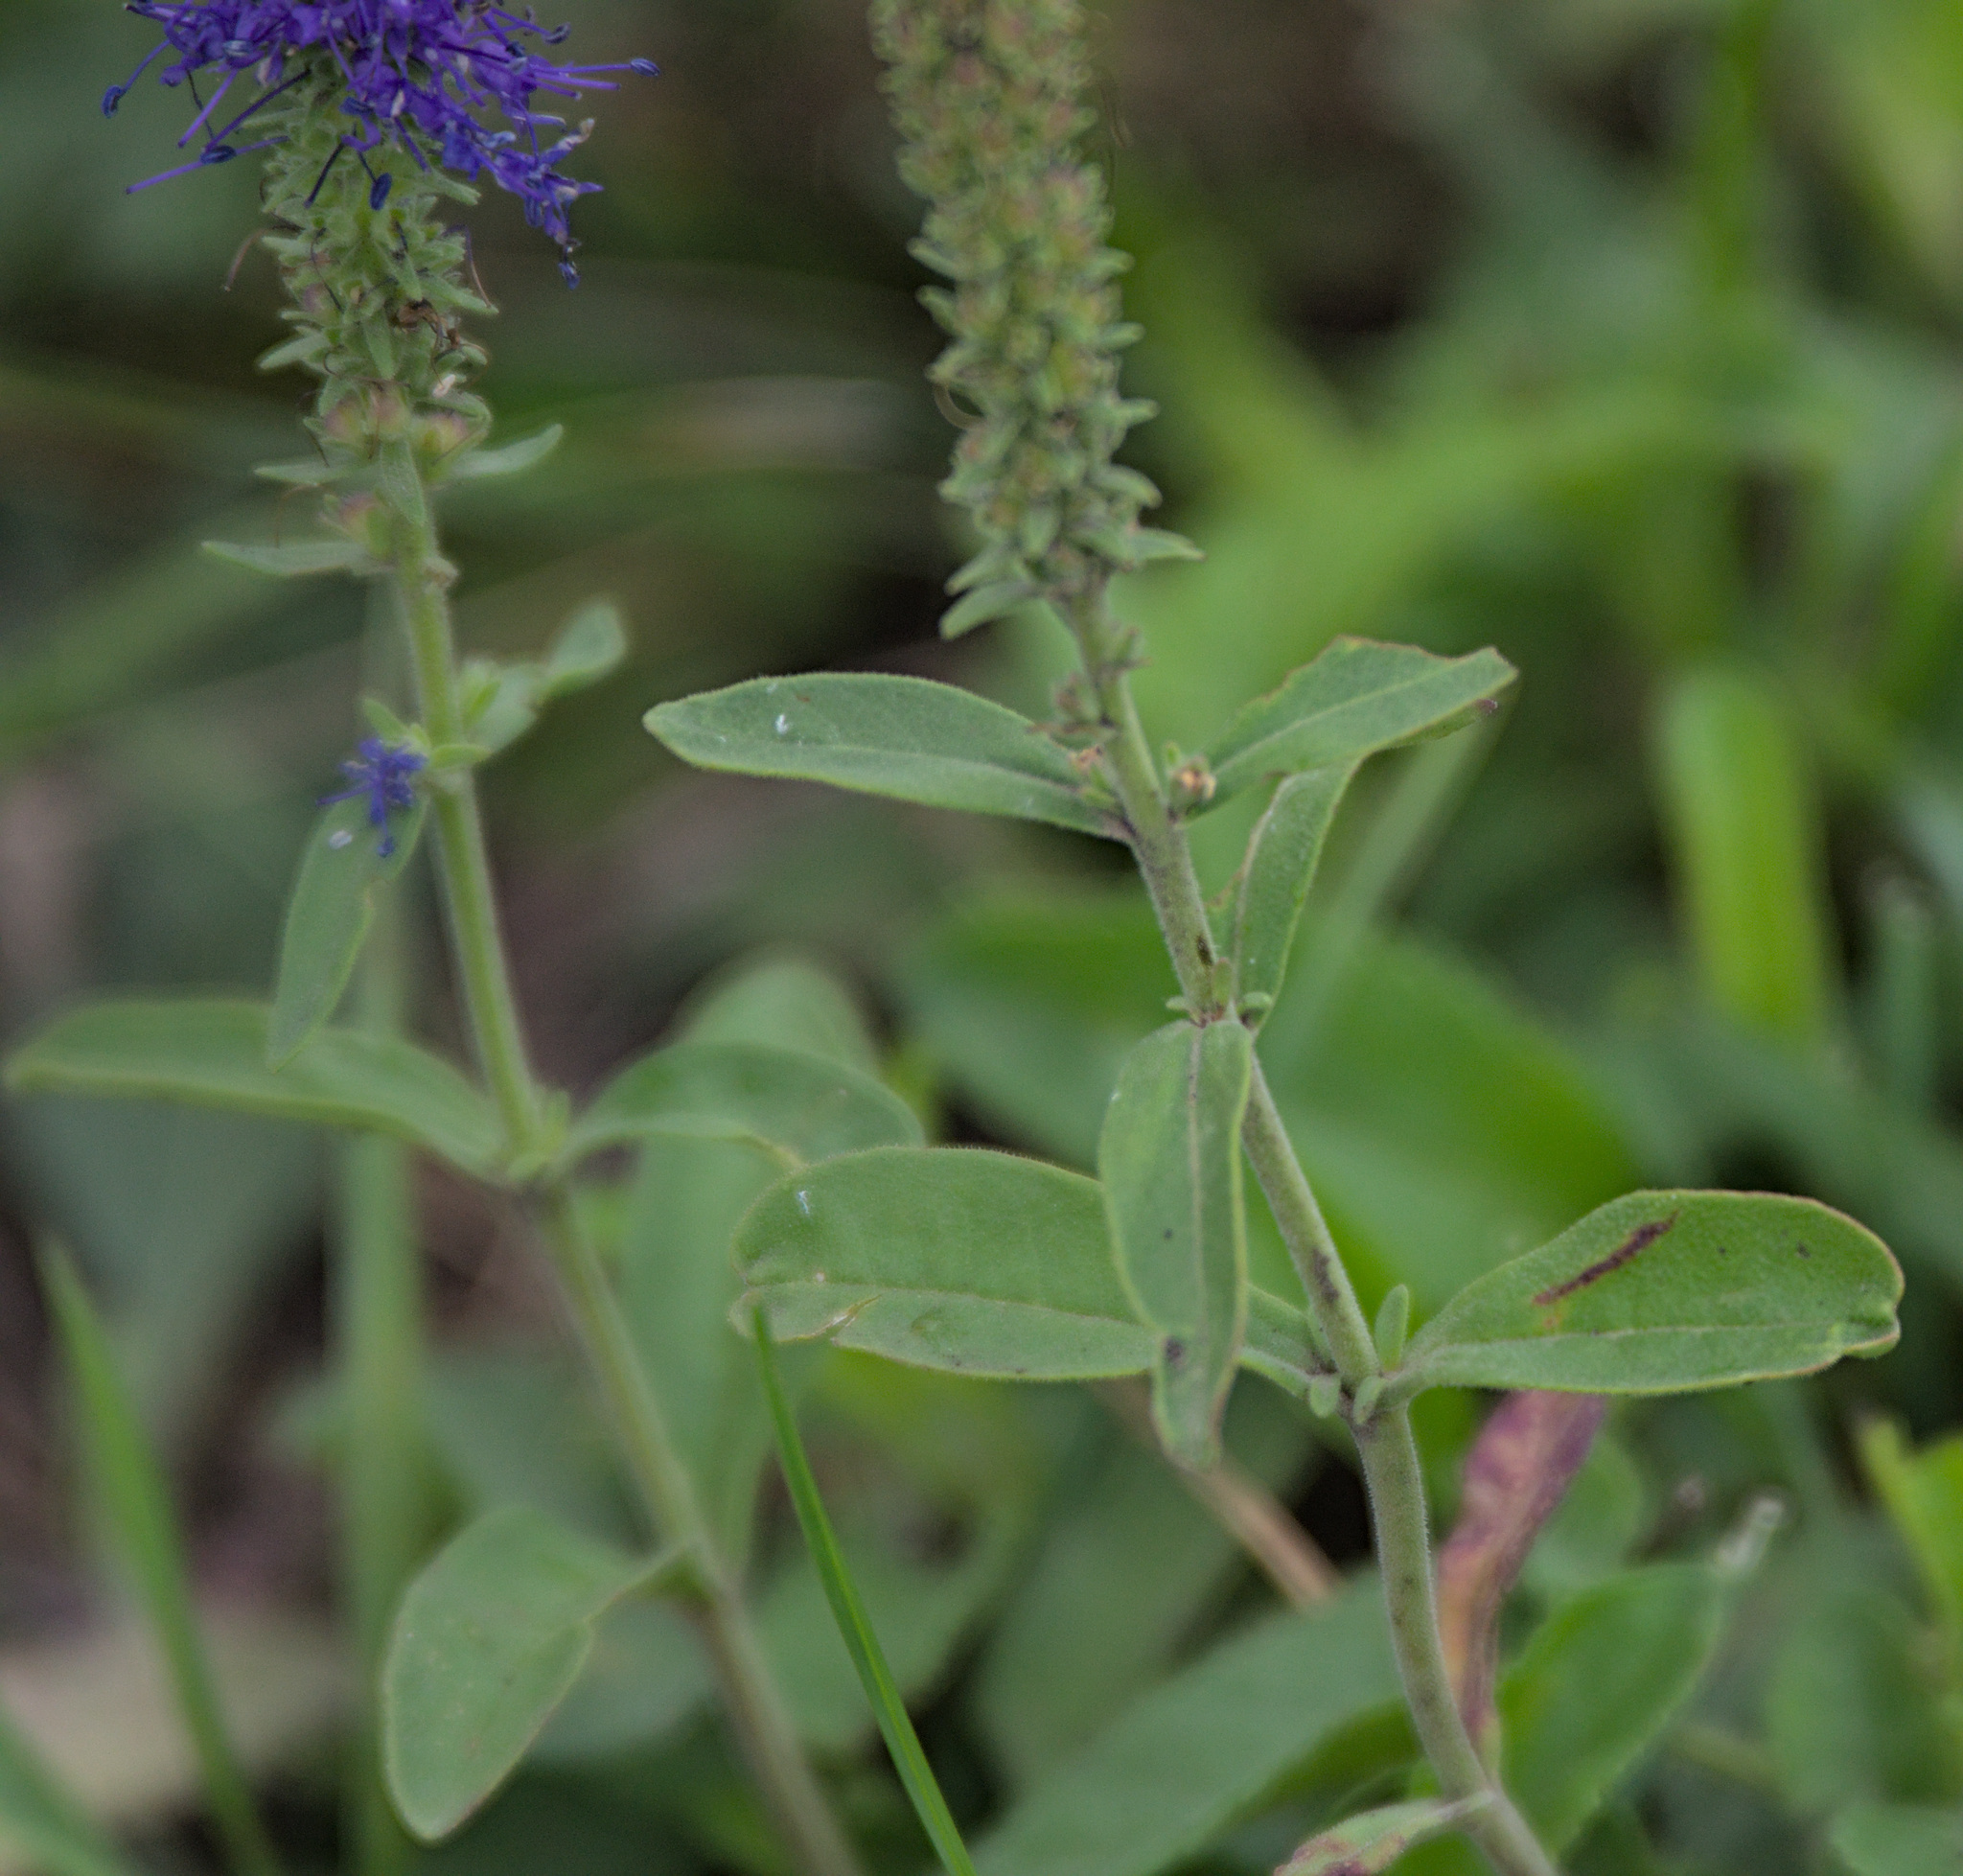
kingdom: Plantae
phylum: Tracheophyta
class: Magnoliopsida
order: Lamiales
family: Plantaginaceae
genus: Veronica
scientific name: Veronica porphyriana
